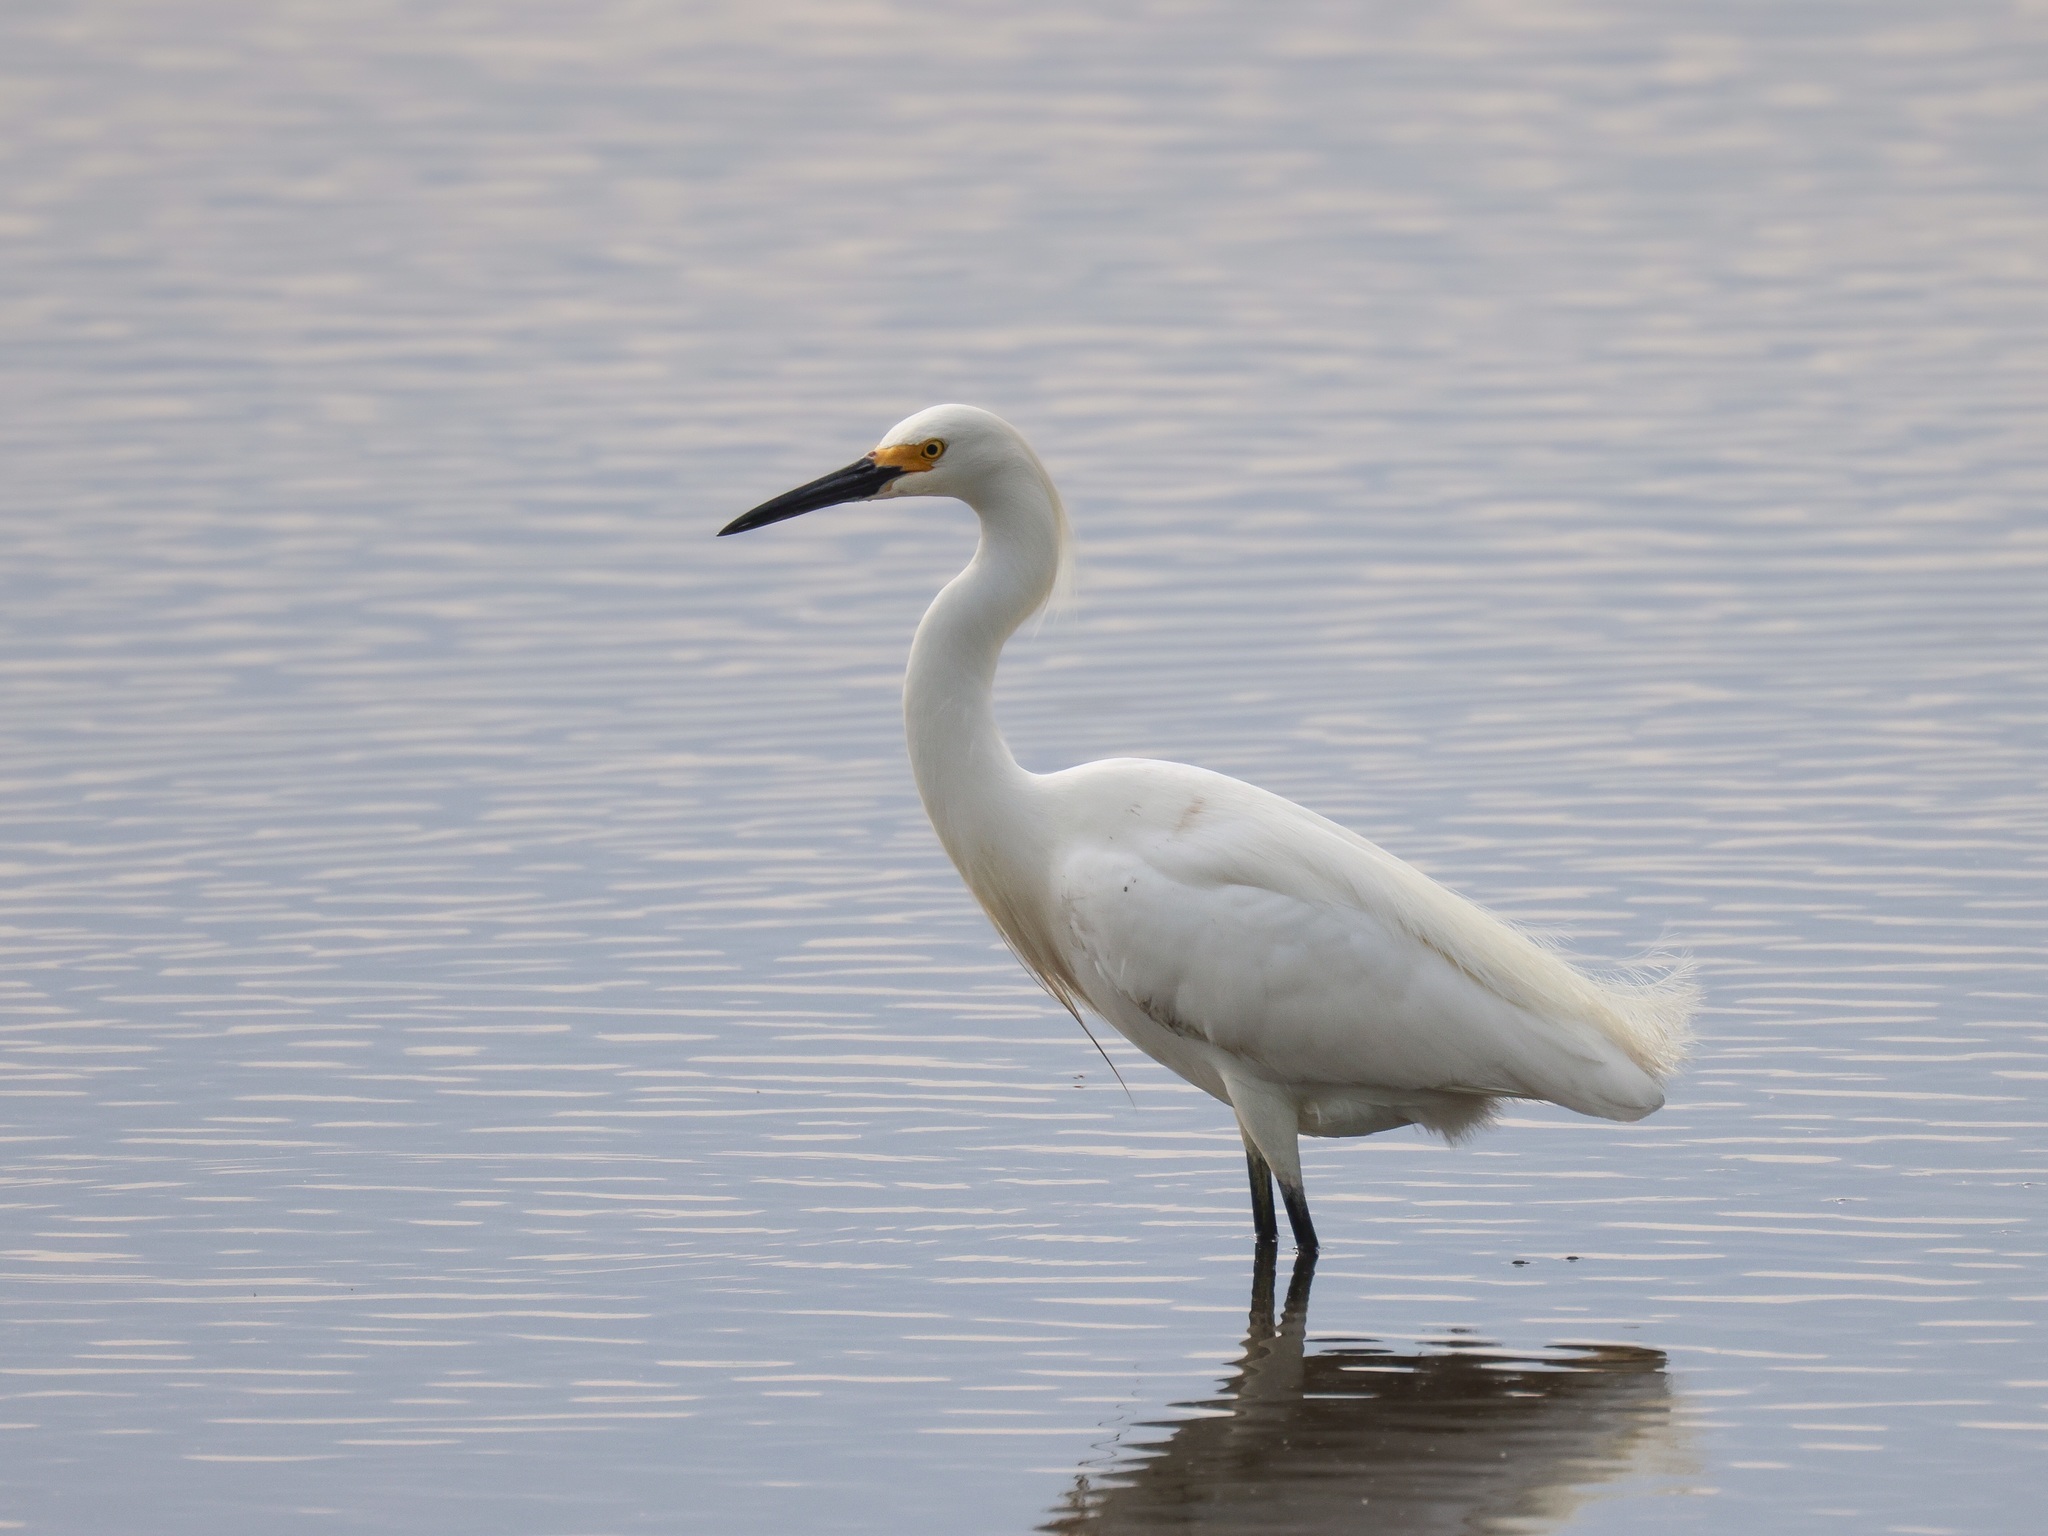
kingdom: Animalia
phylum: Chordata
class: Aves
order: Pelecaniformes
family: Ardeidae
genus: Egretta
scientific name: Egretta thula
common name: Snowy egret
